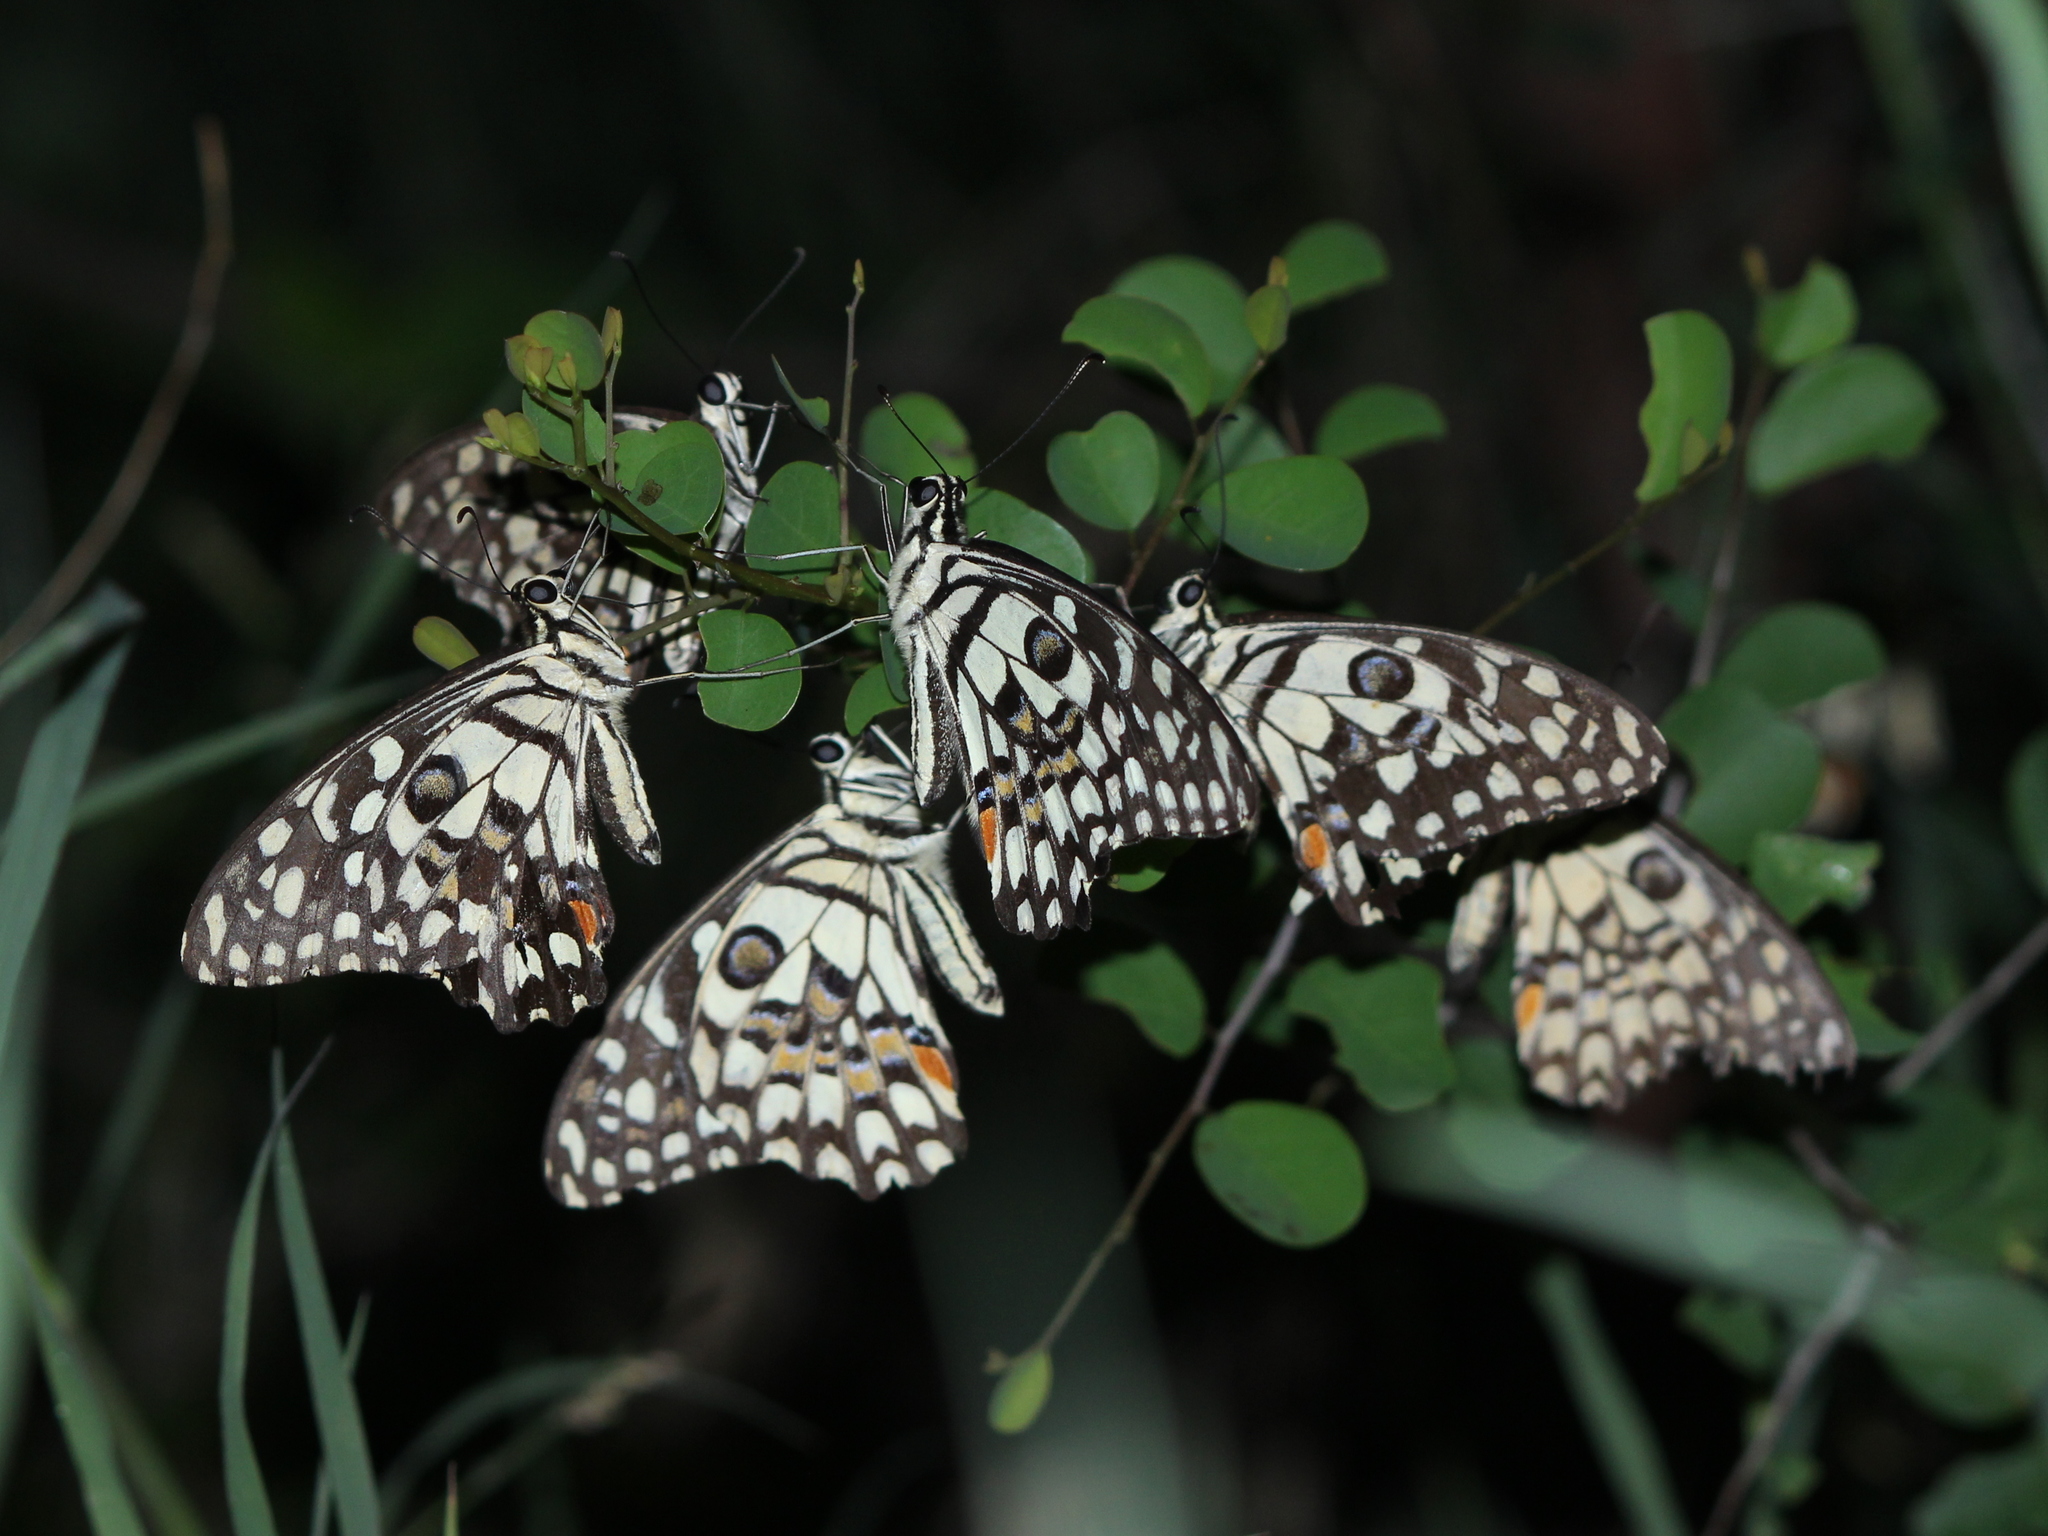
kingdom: Animalia
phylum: Arthropoda
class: Insecta
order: Lepidoptera
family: Papilionidae
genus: Papilio
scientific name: Papilio demoleus
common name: Lime butterfly
